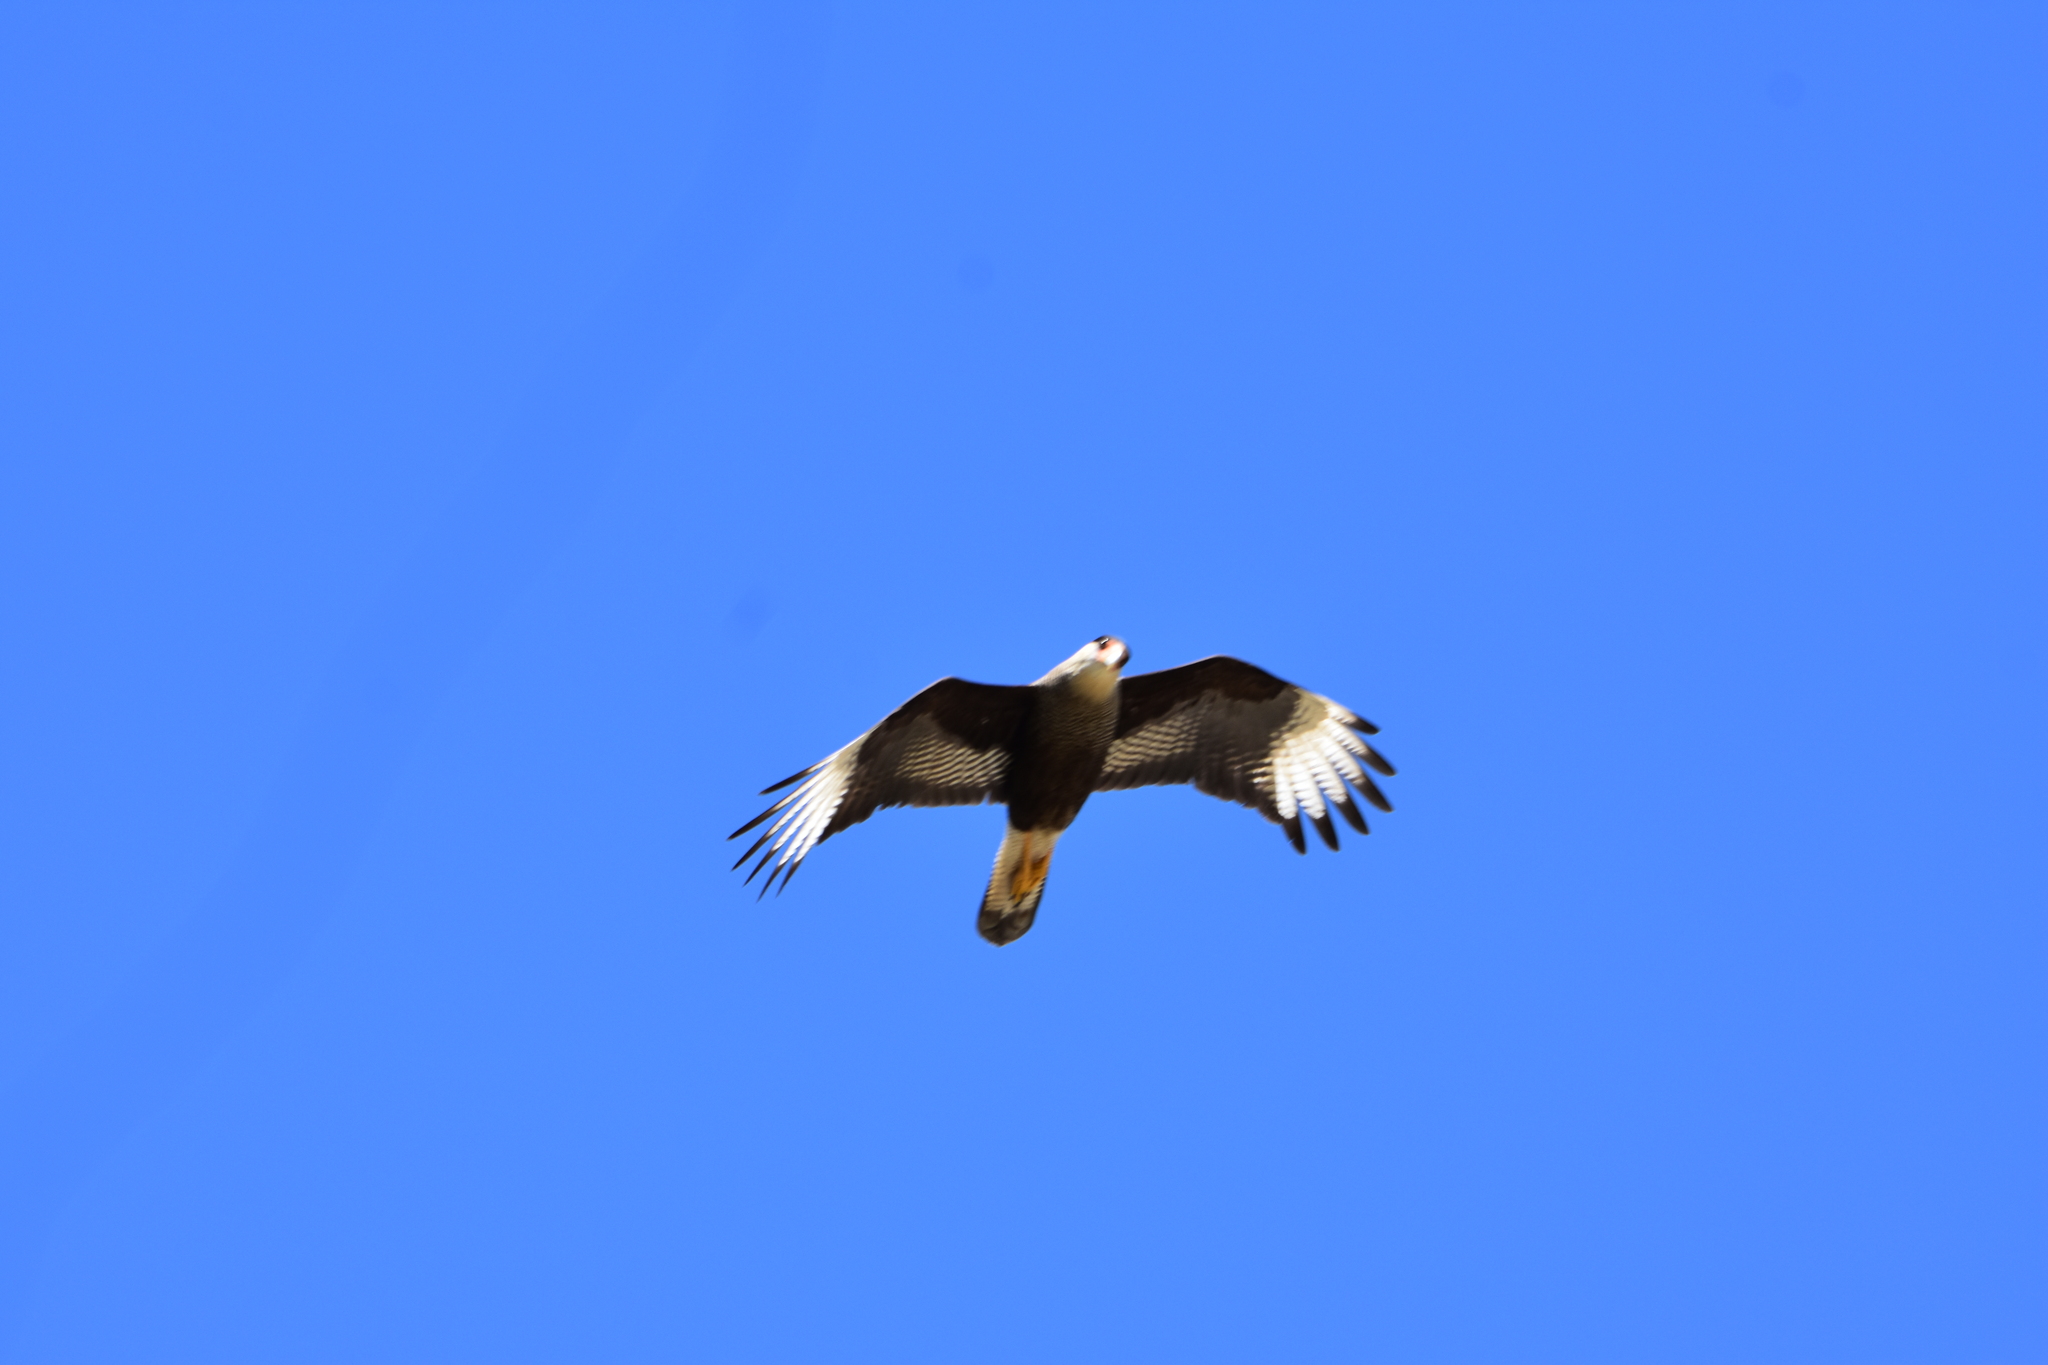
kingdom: Animalia
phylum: Chordata
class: Aves
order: Falconiformes
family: Falconidae
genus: Caracara
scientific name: Caracara plancus
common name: Southern caracara
